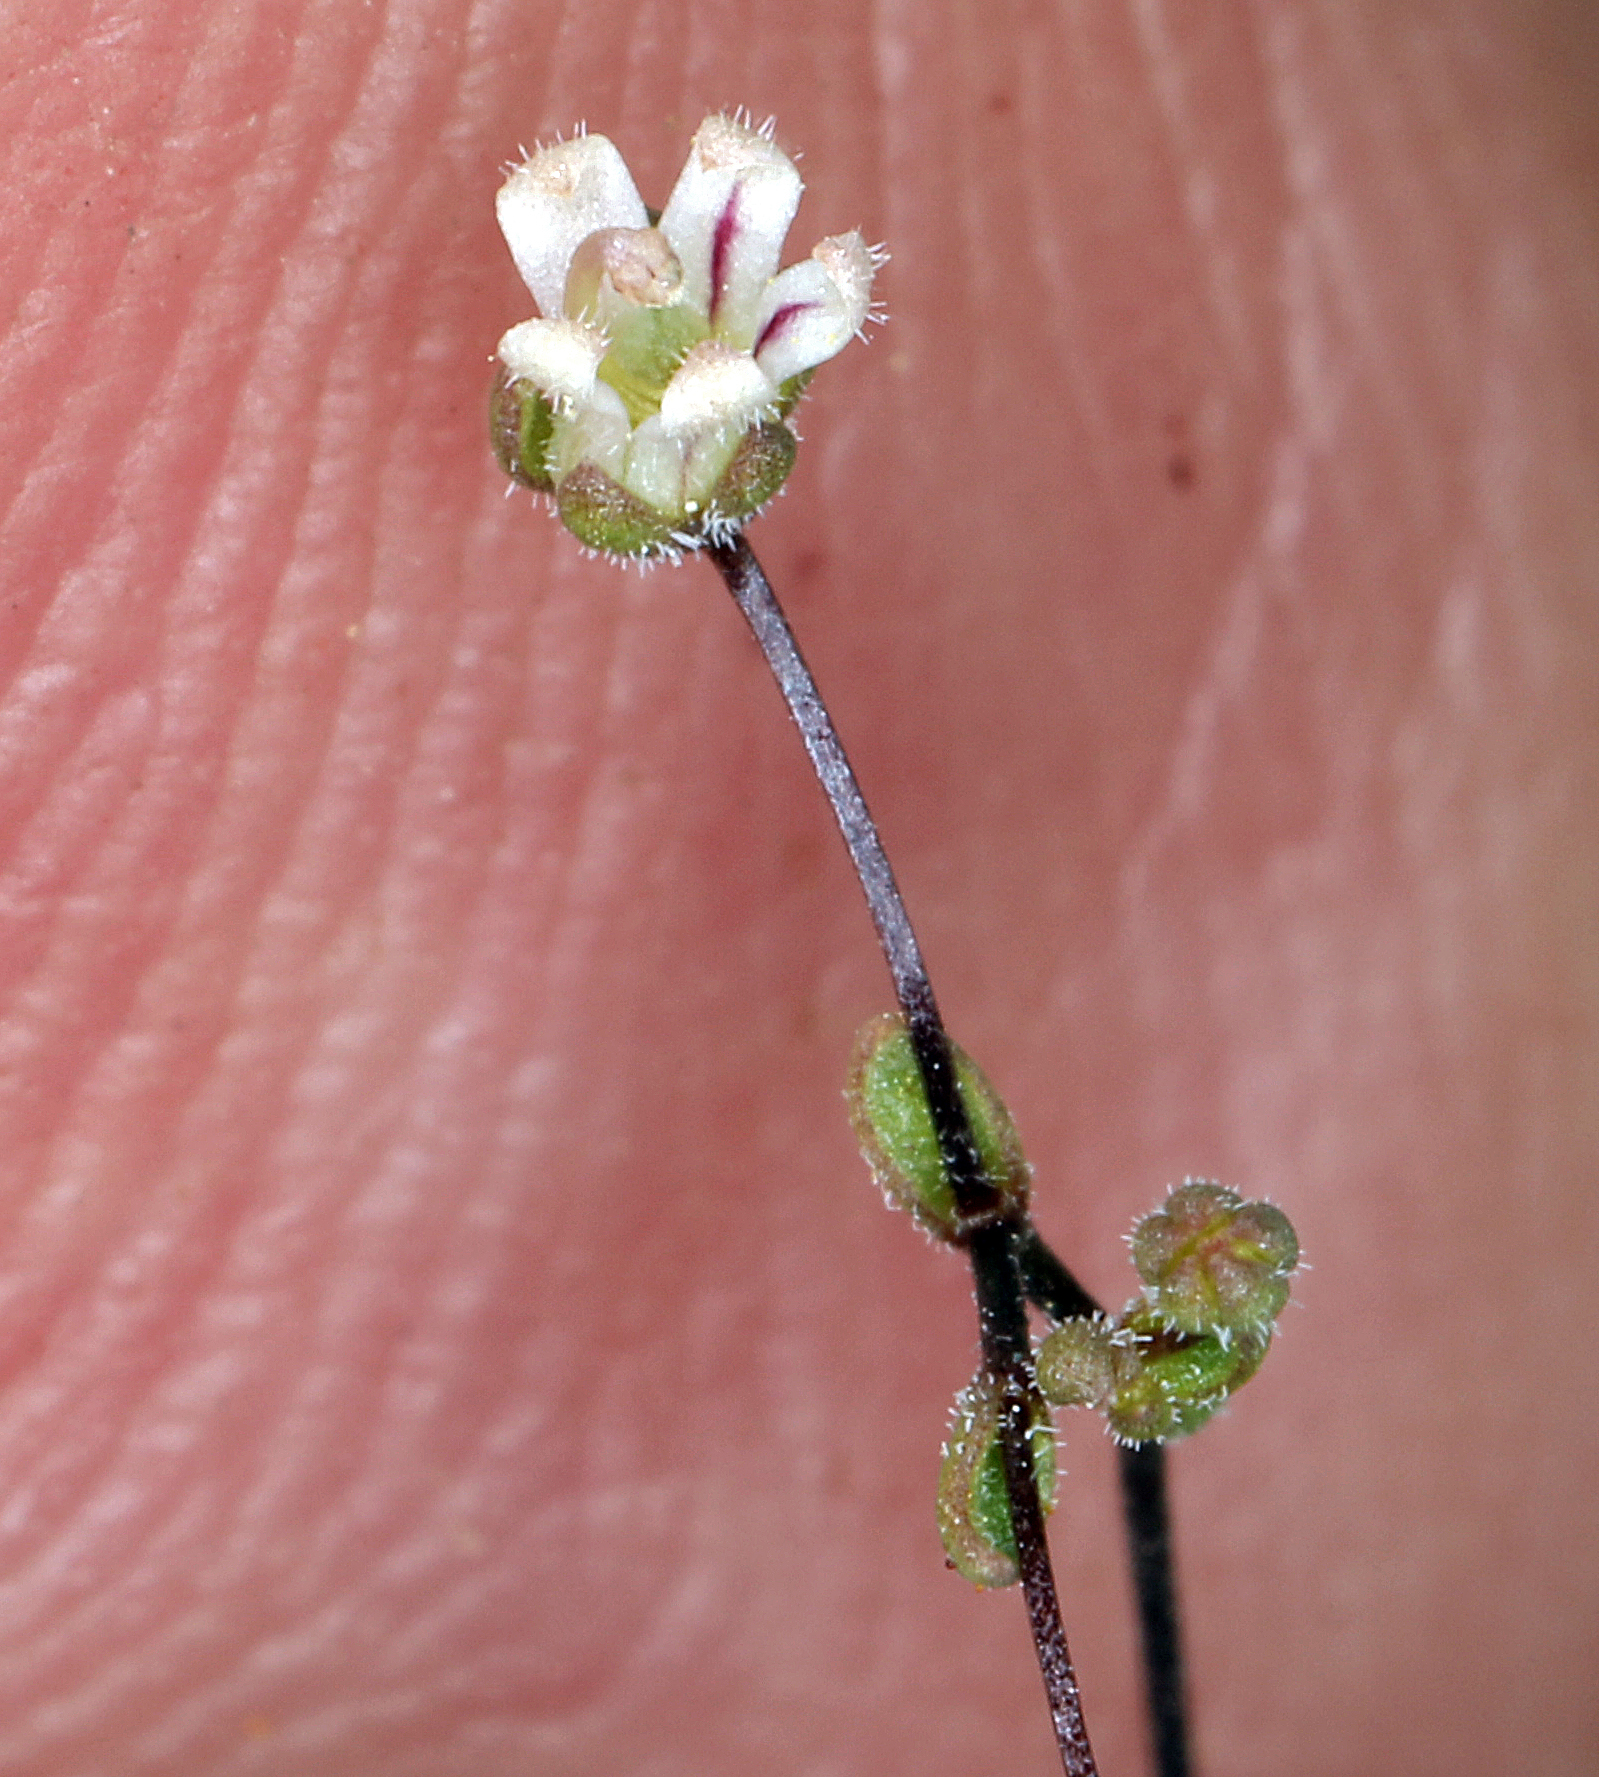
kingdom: Plantae
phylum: Tracheophyta
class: Magnoliopsida
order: Asterales
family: Campanulaceae
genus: Nemacladus
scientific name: Nemacladus inyoensis
